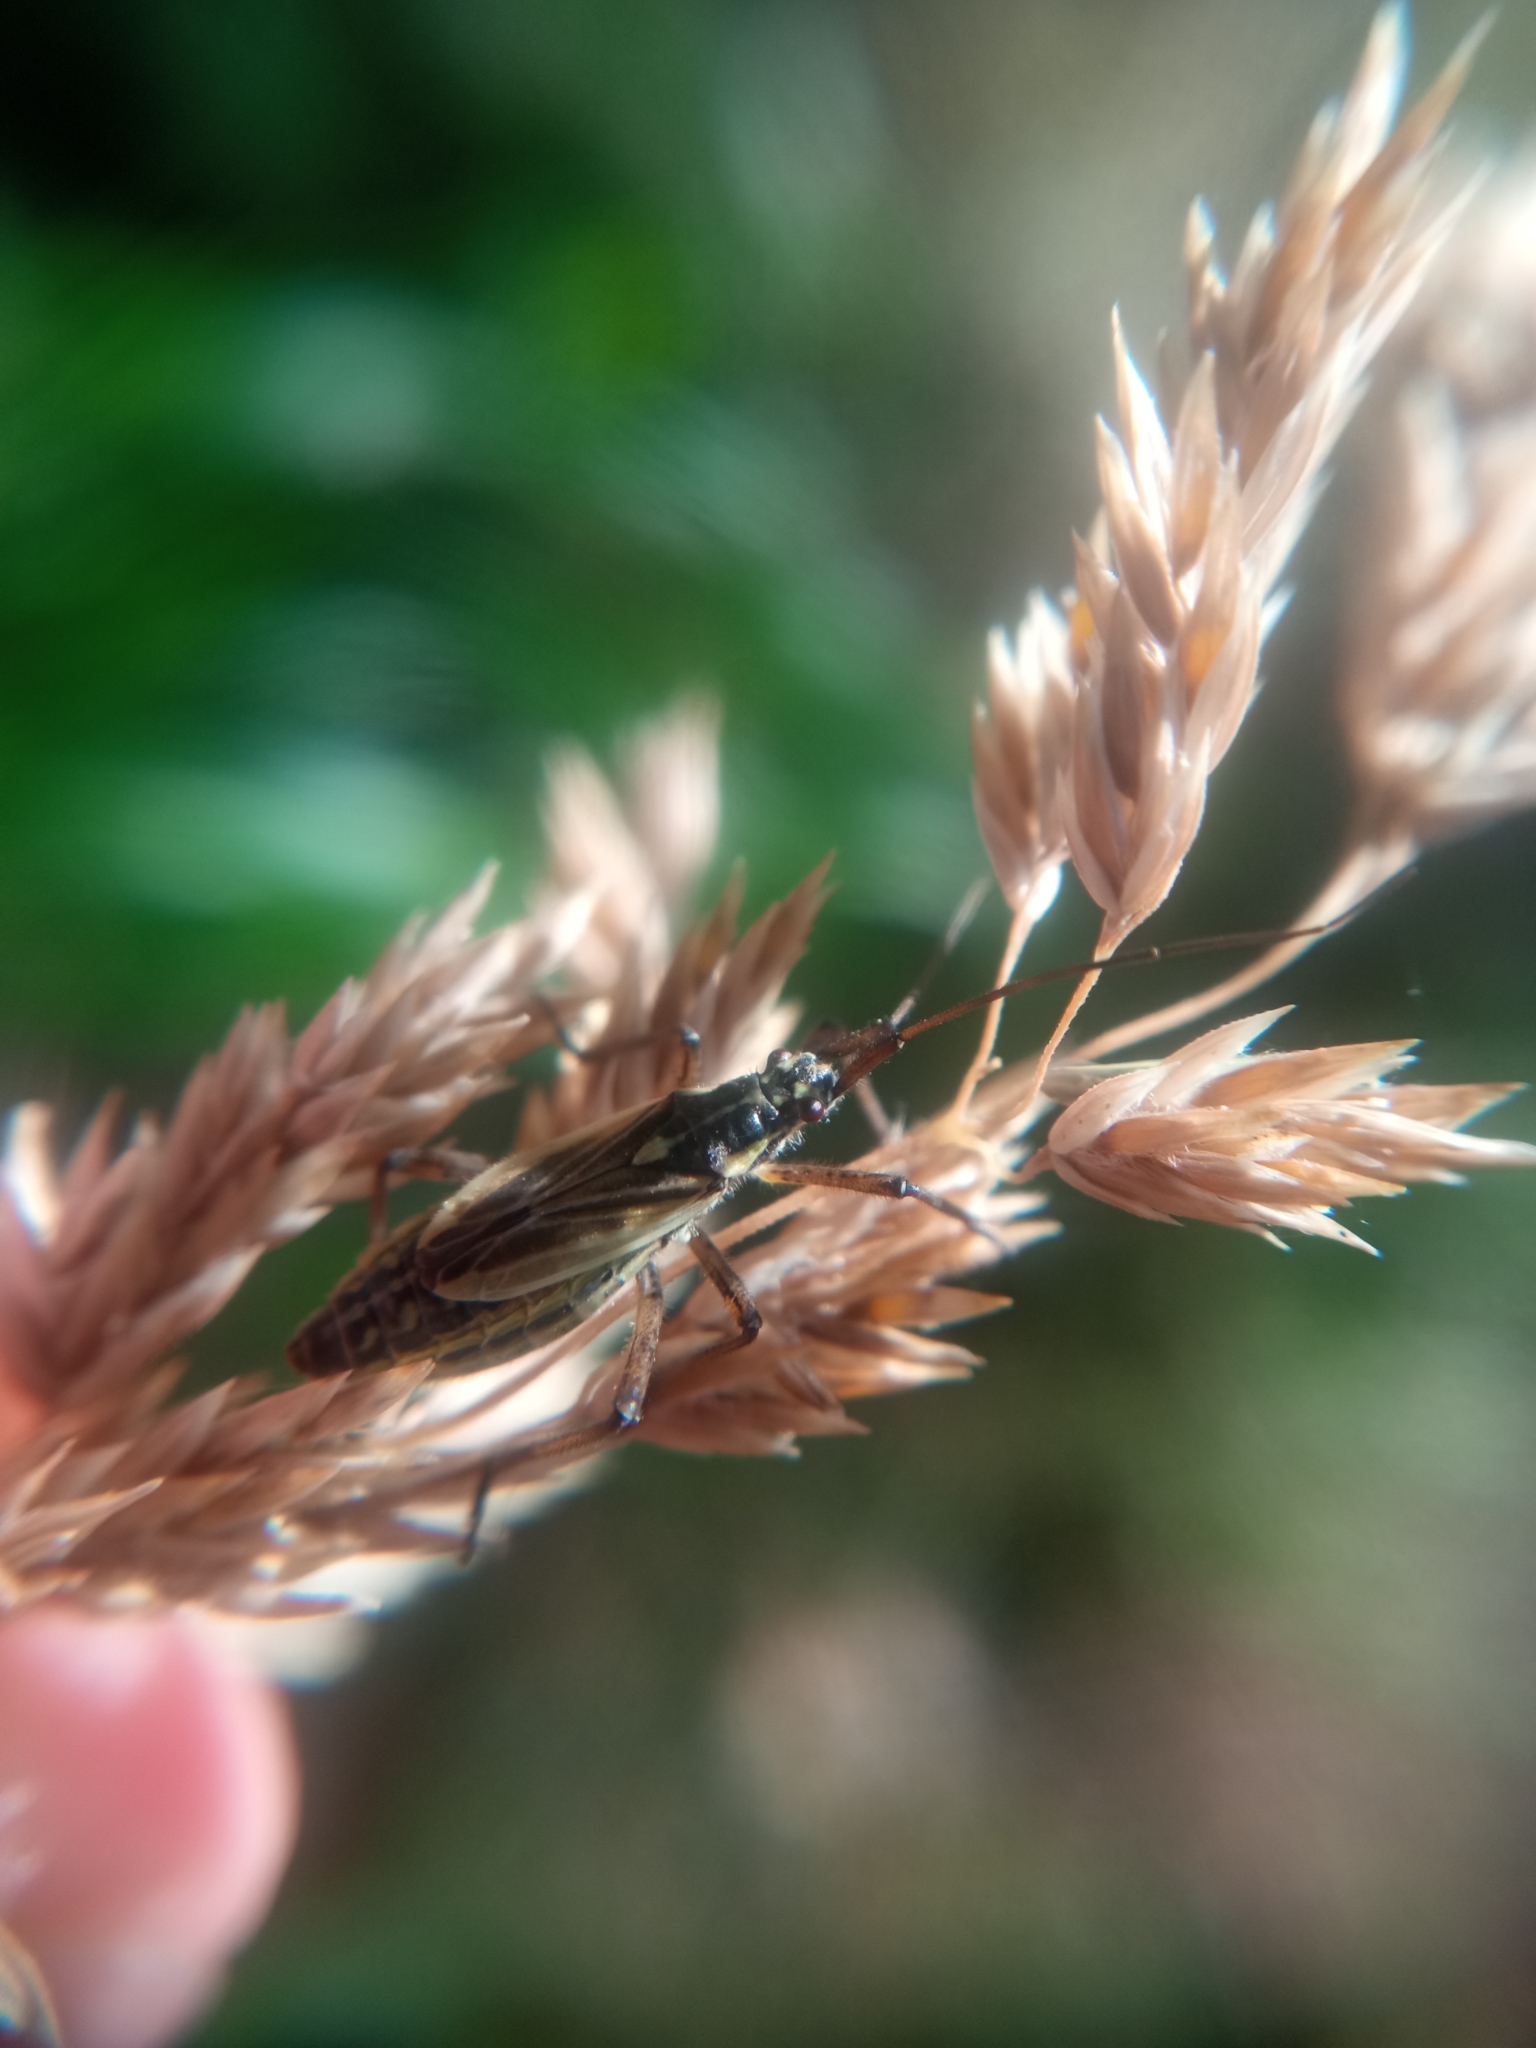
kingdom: Animalia
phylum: Arthropoda
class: Insecta
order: Hemiptera
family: Miridae
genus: Leptopterna
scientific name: Leptopterna dolabrata
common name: Meadow plant bug
